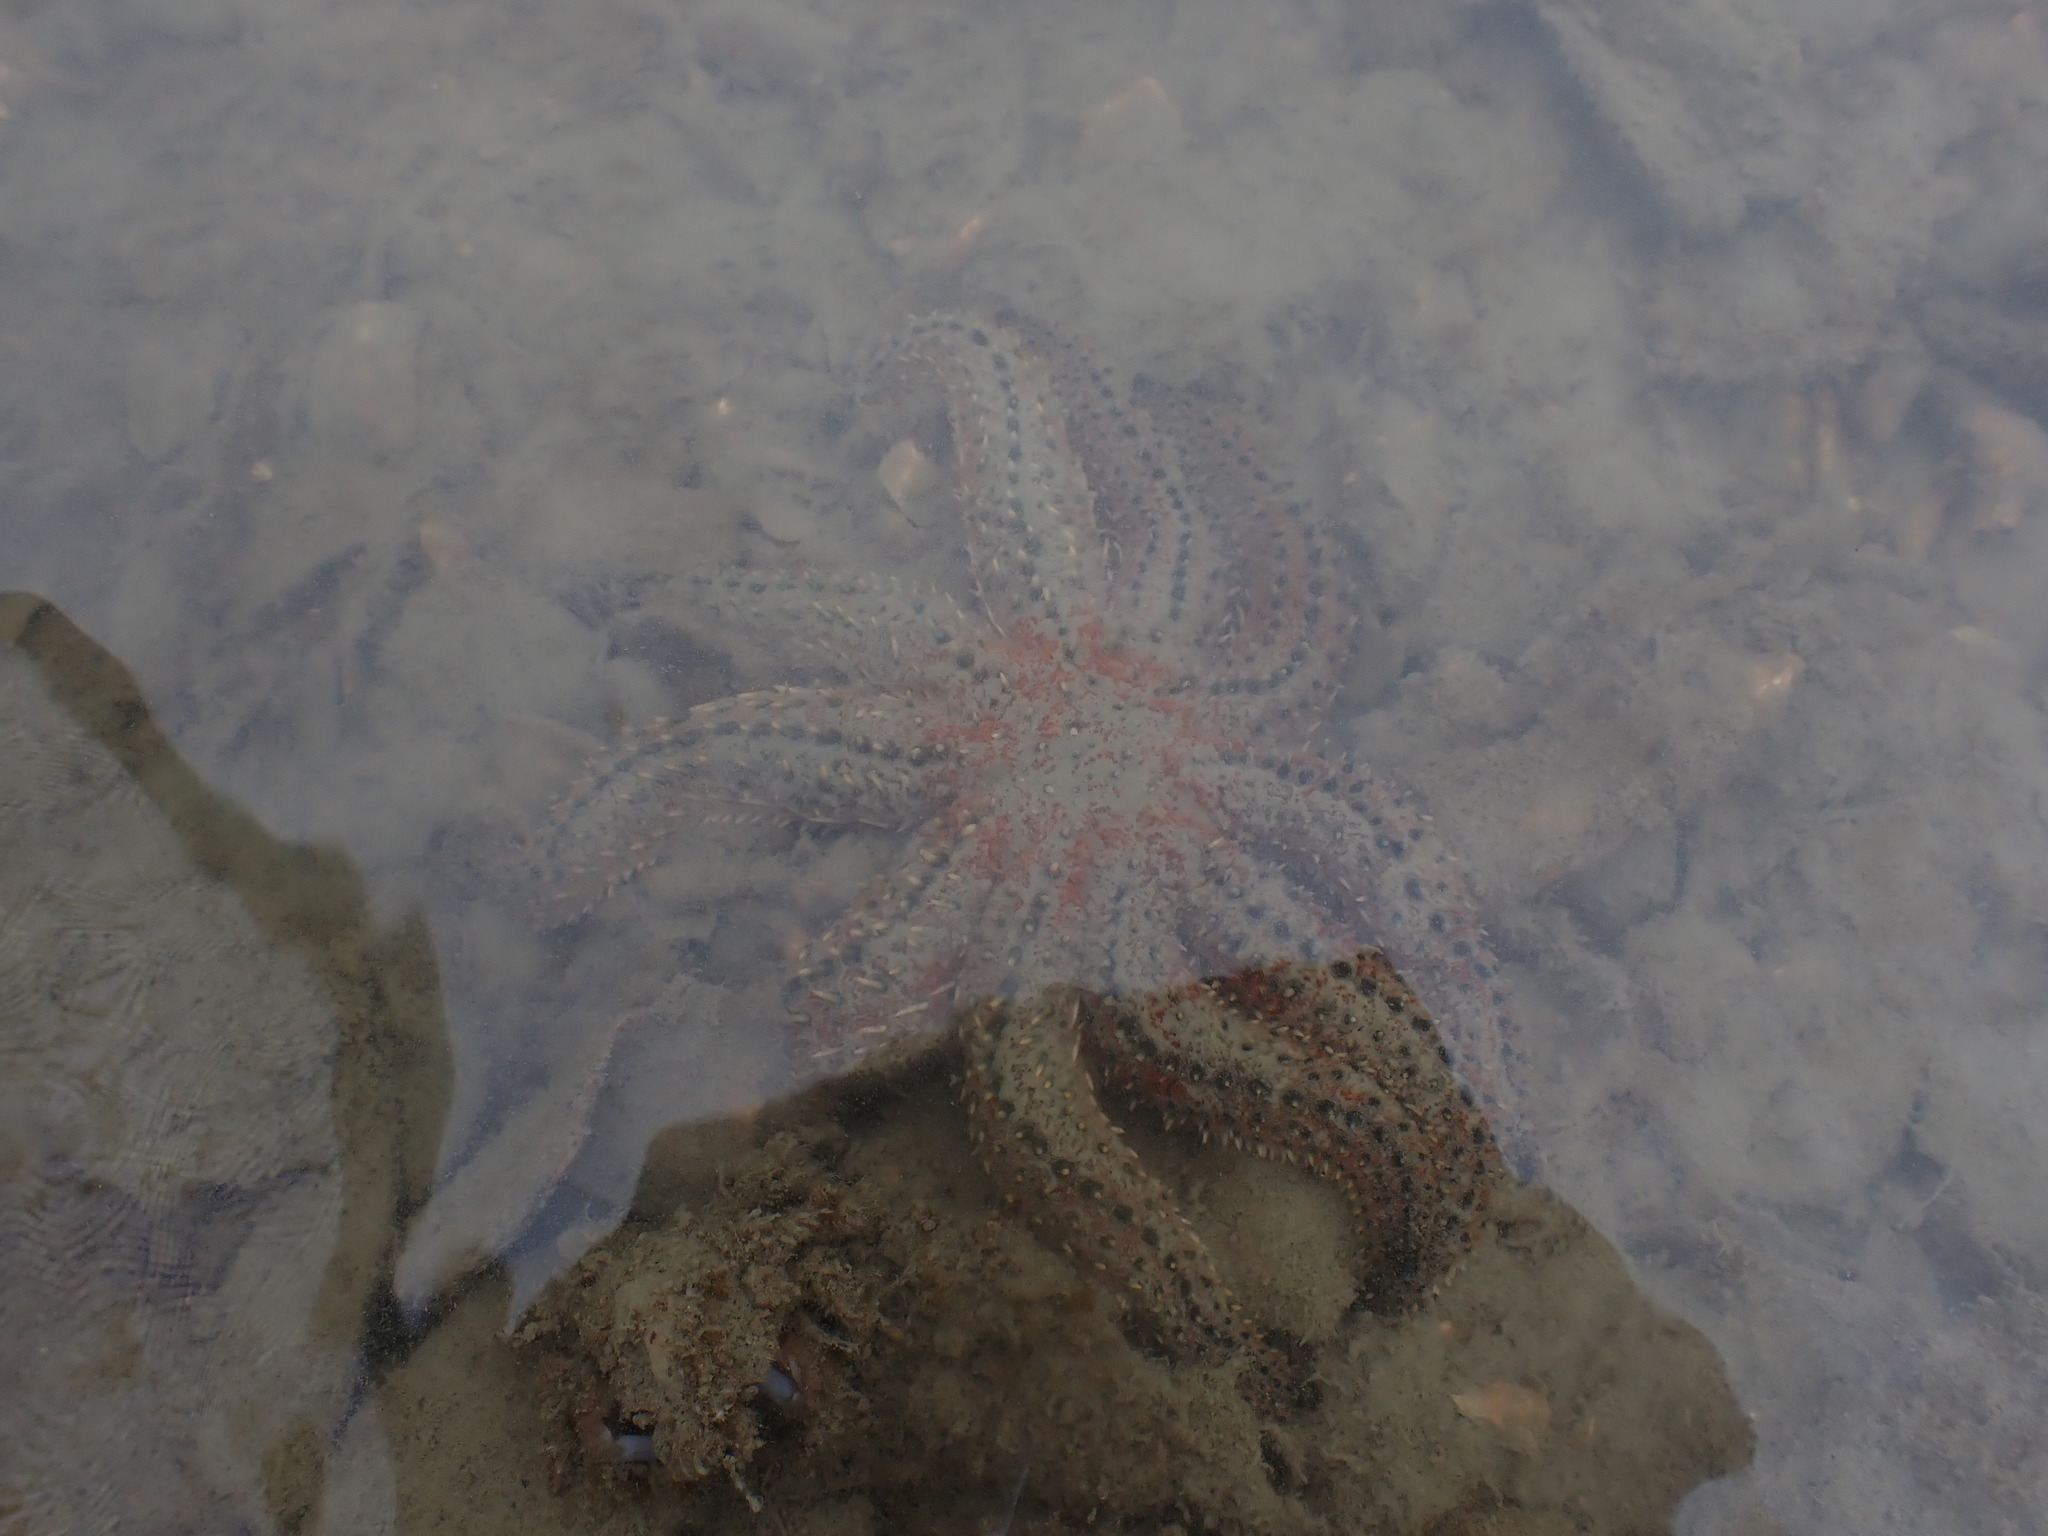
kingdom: Animalia
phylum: Echinodermata
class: Asteroidea
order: Forcipulatida
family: Asteriidae
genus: Coscinasterias
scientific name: Coscinasterias muricata
